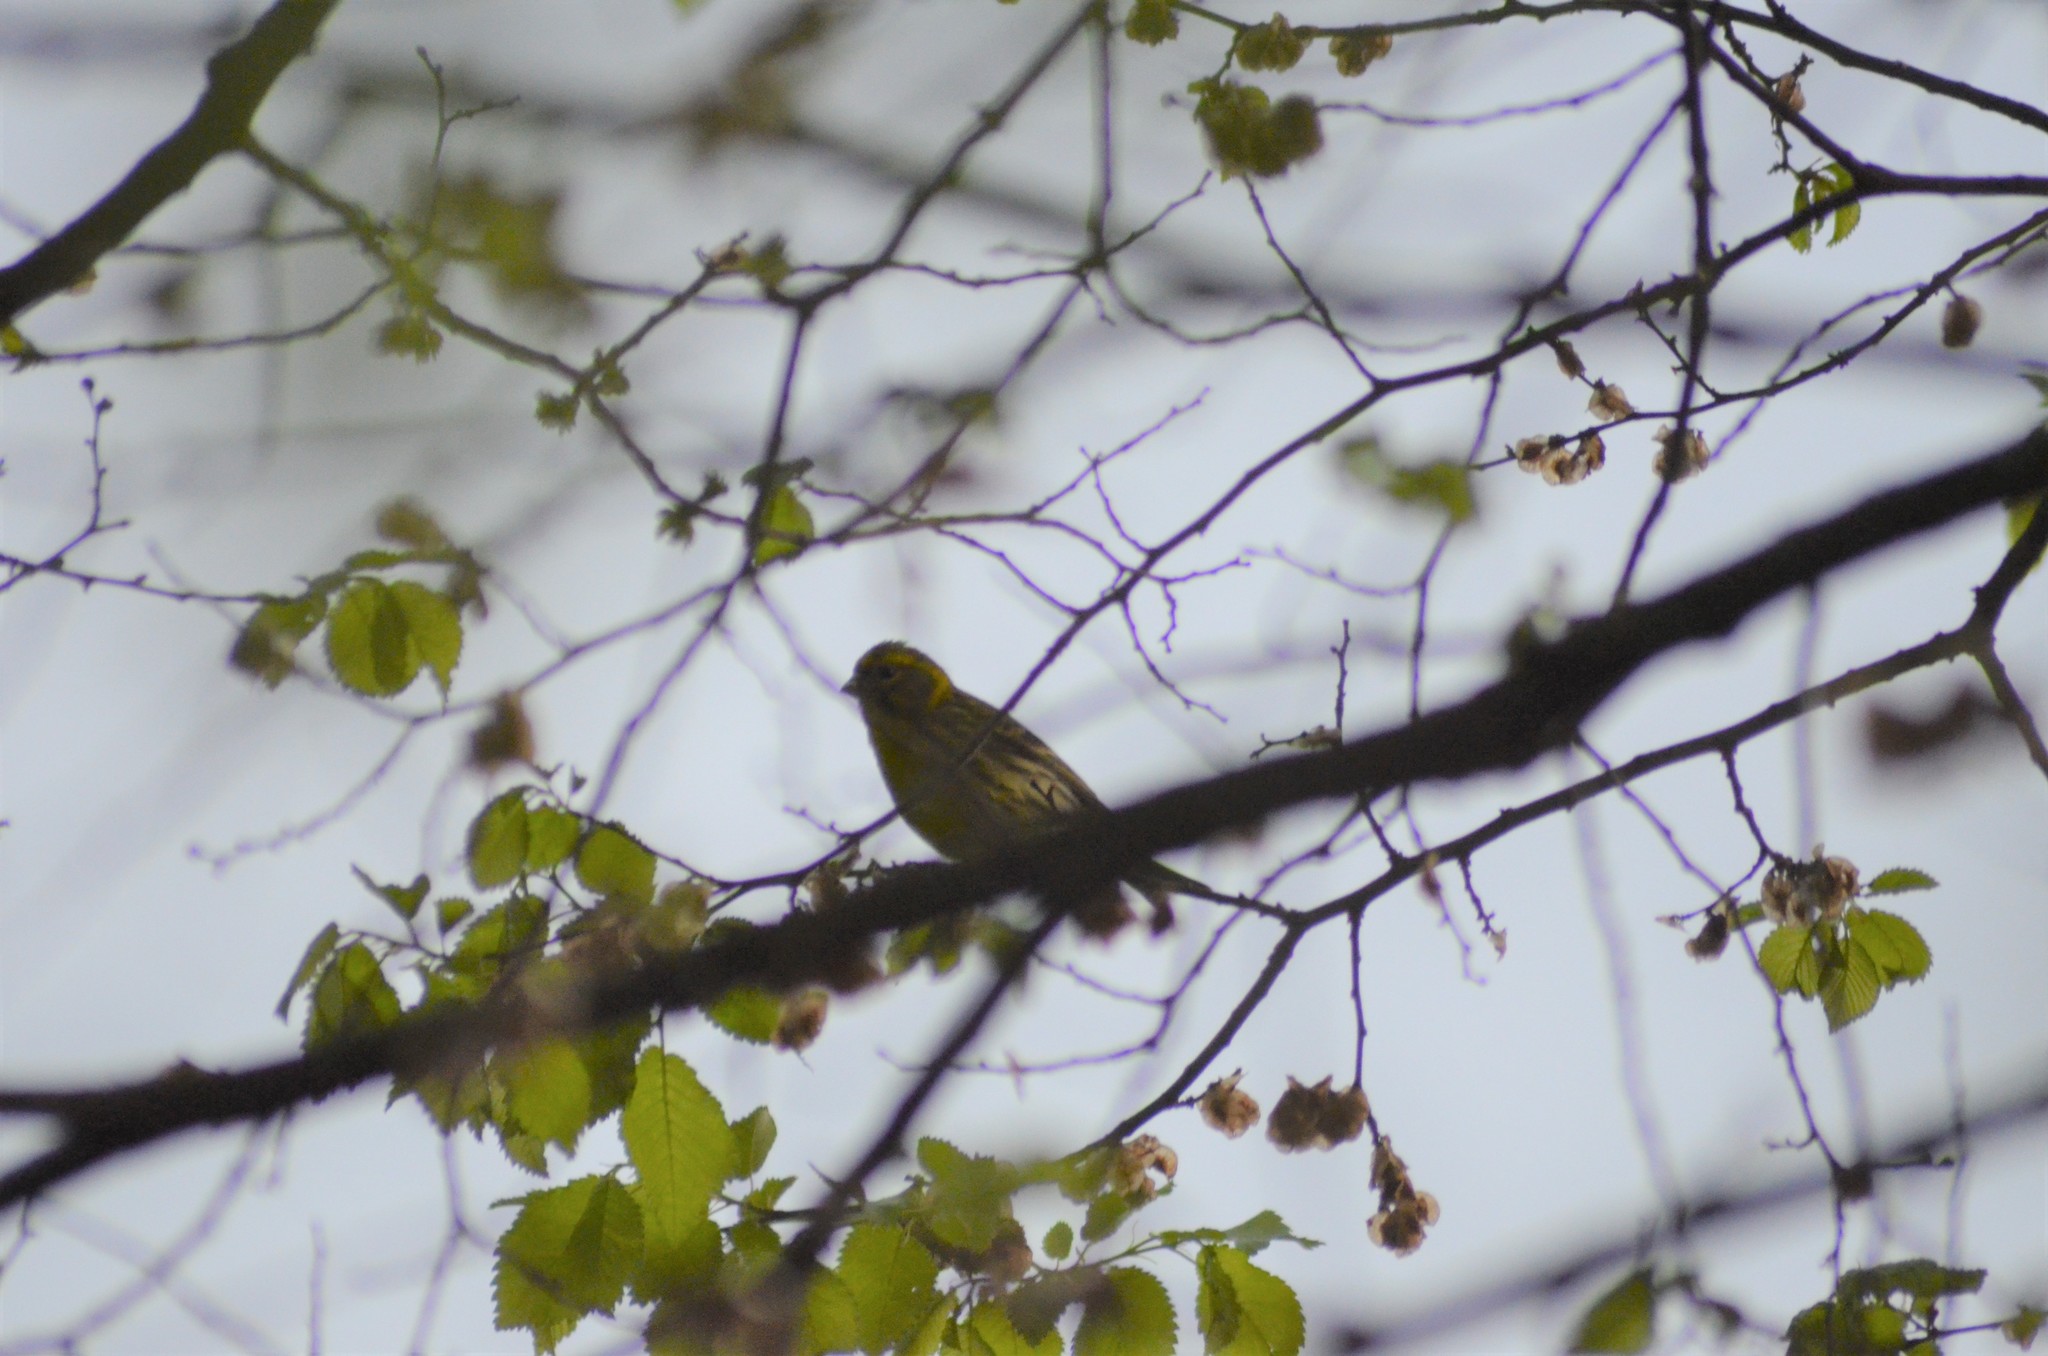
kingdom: Animalia
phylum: Chordata
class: Aves
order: Passeriformes
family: Fringillidae
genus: Serinus
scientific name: Serinus serinus
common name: European serin
